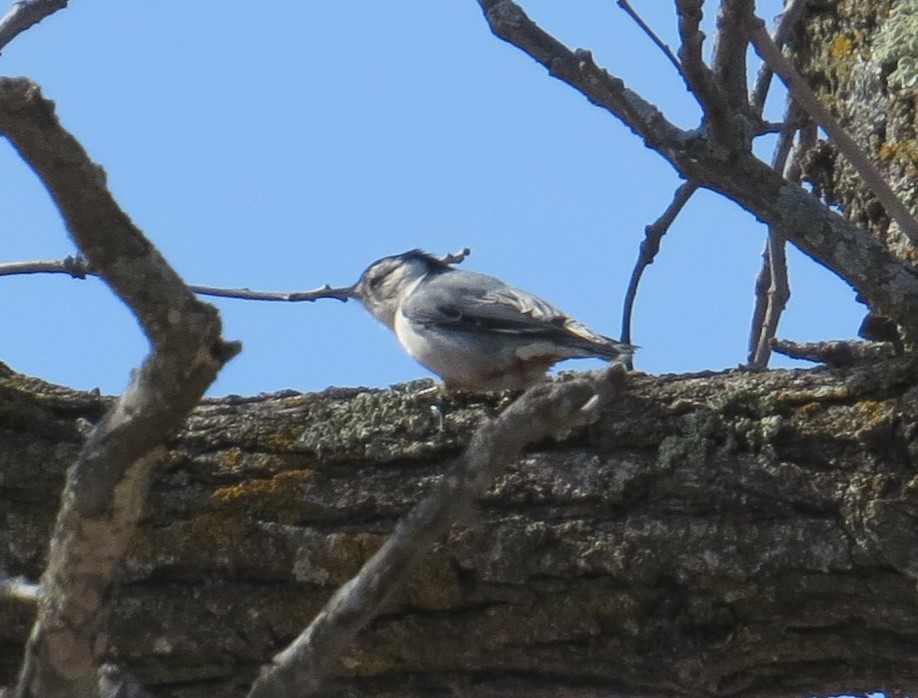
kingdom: Animalia
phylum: Chordata
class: Aves
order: Passeriformes
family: Sittidae
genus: Sitta
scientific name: Sitta carolinensis
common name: White-breasted nuthatch
